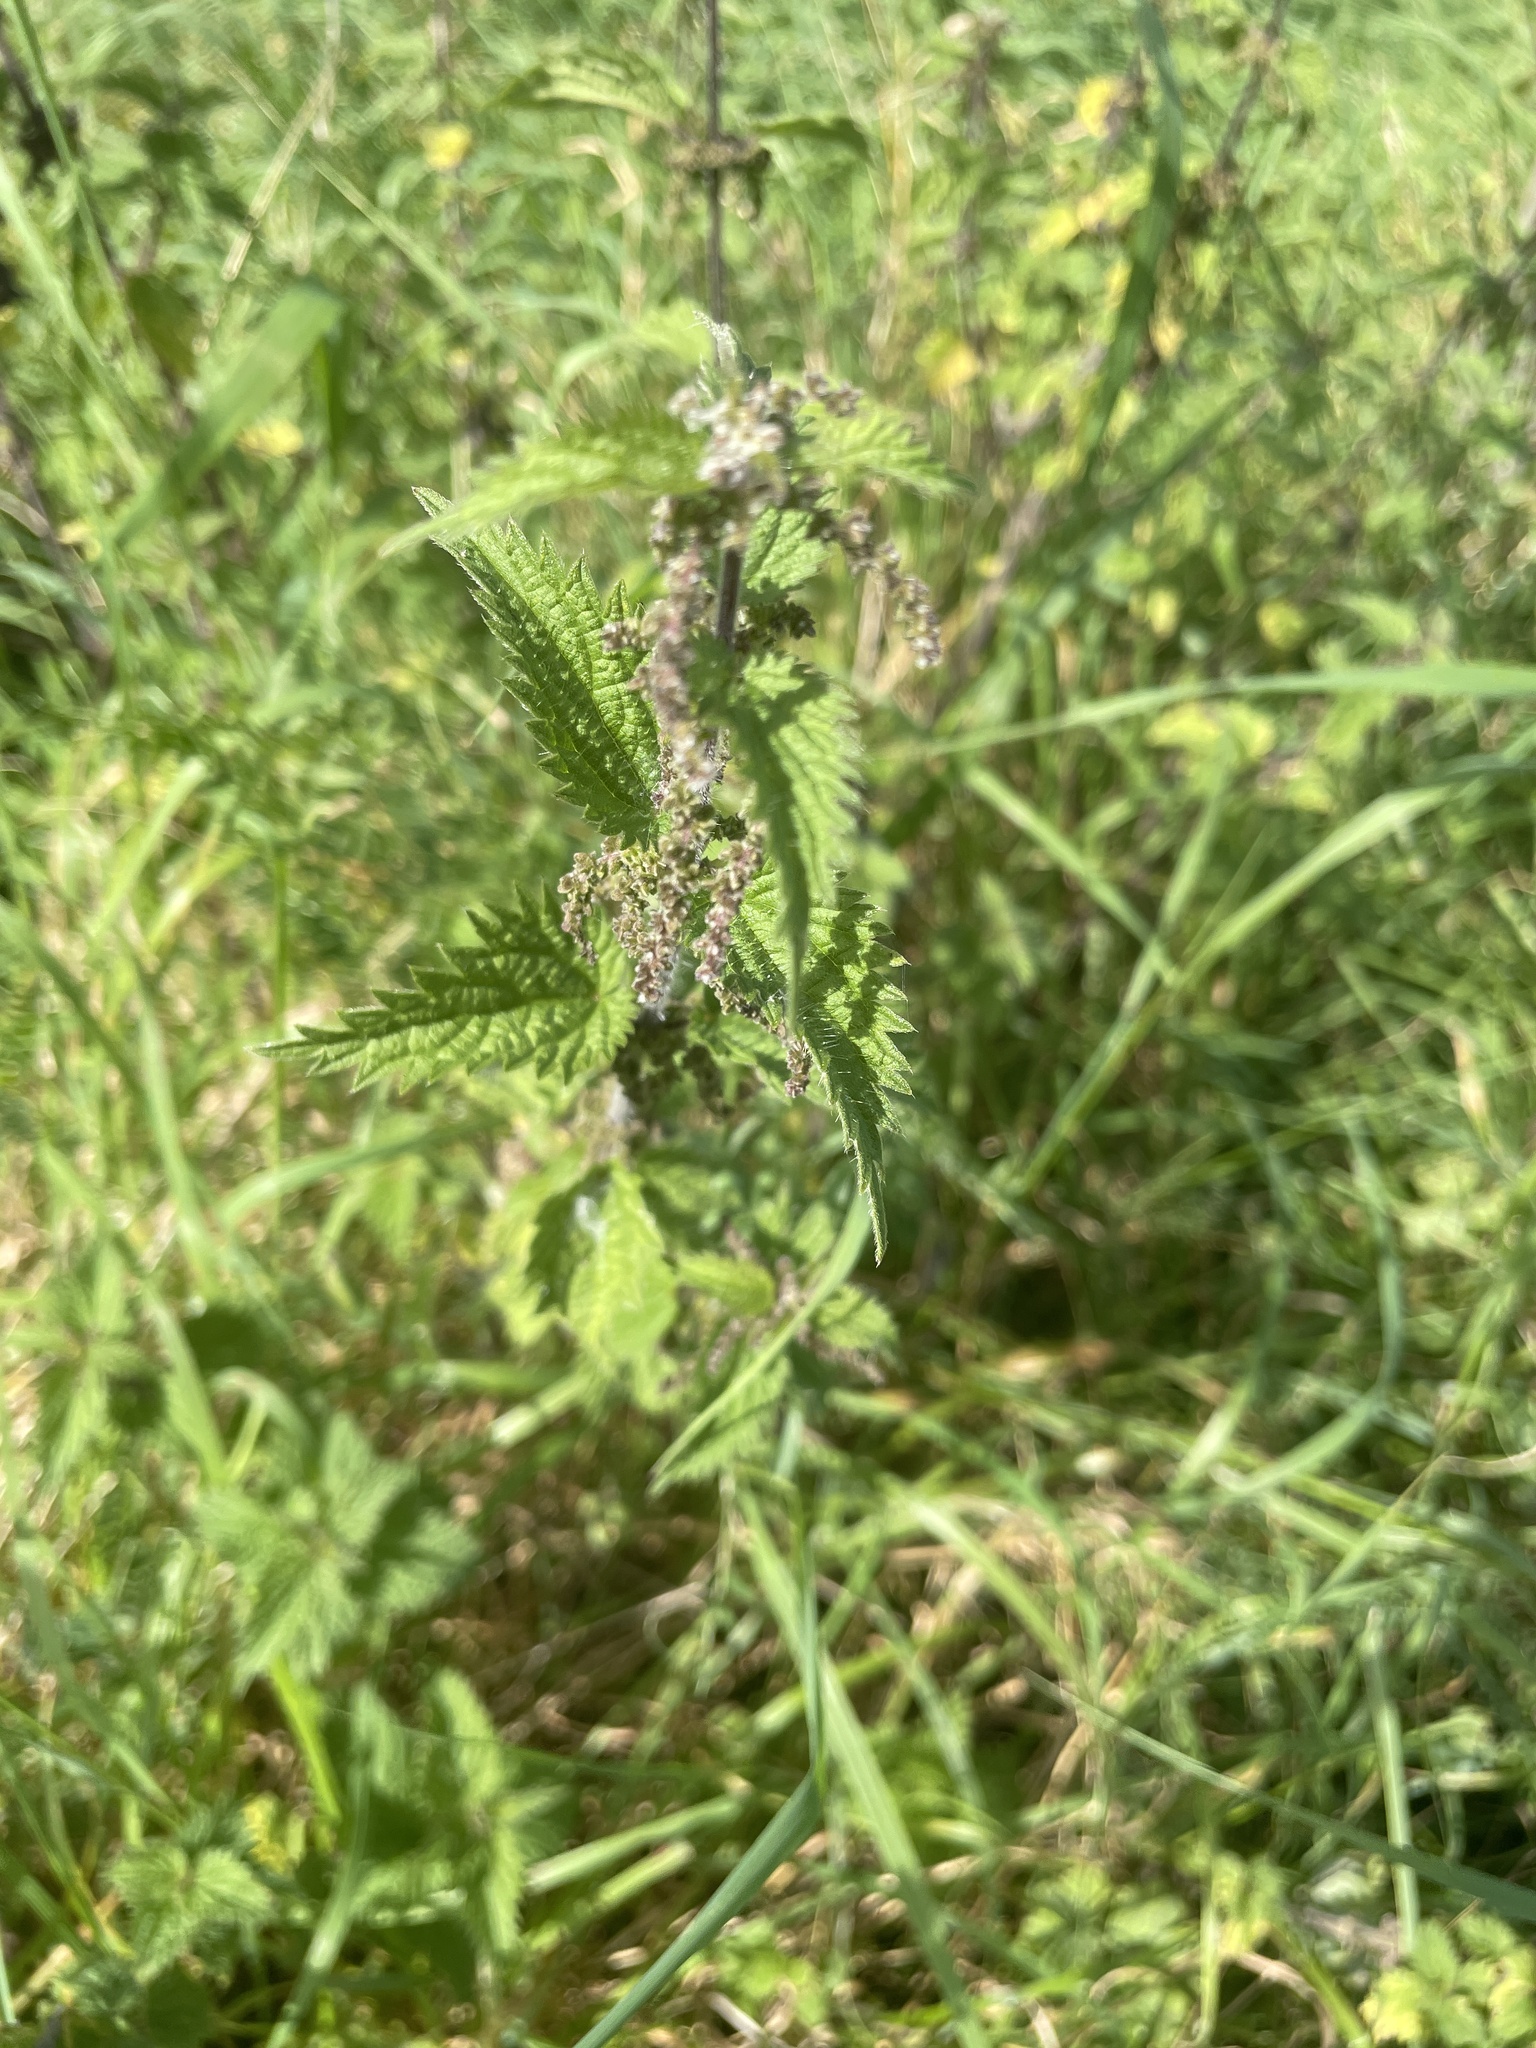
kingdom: Plantae
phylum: Tracheophyta
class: Magnoliopsida
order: Rosales
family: Urticaceae
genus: Urtica
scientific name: Urtica dioica
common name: Common nettle
